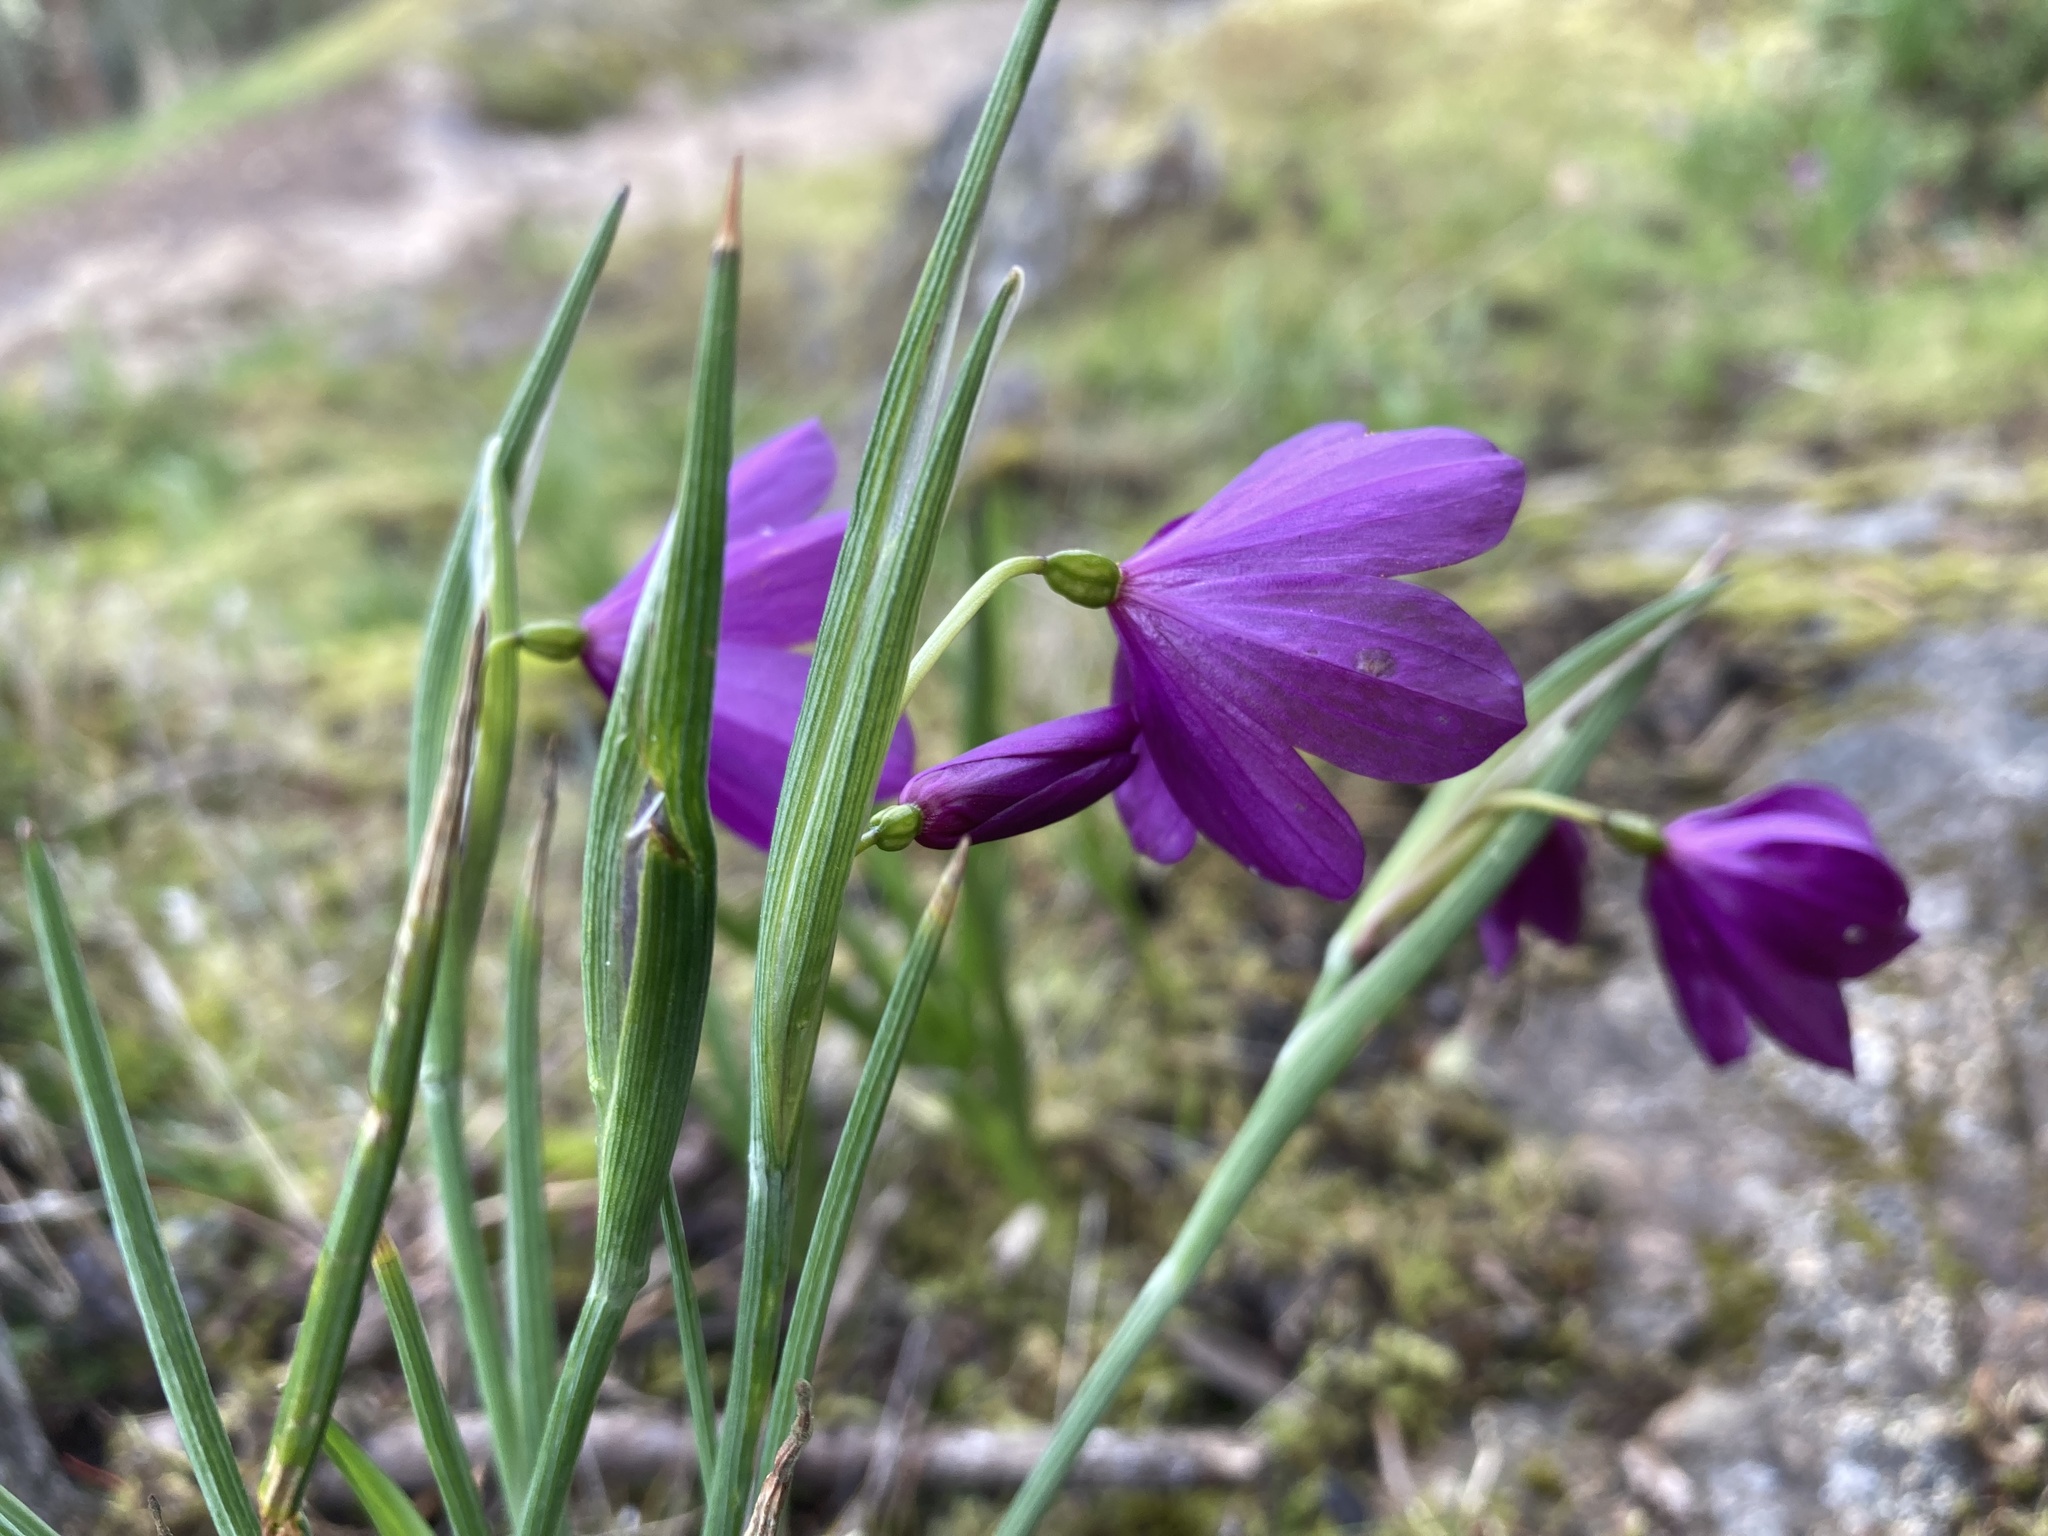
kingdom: Plantae
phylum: Tracheophyta
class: Liliopsida
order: Asparagales
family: Iridaceae
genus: Olsynium
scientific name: Olsynium douglasii
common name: Douglas' grasswidow
